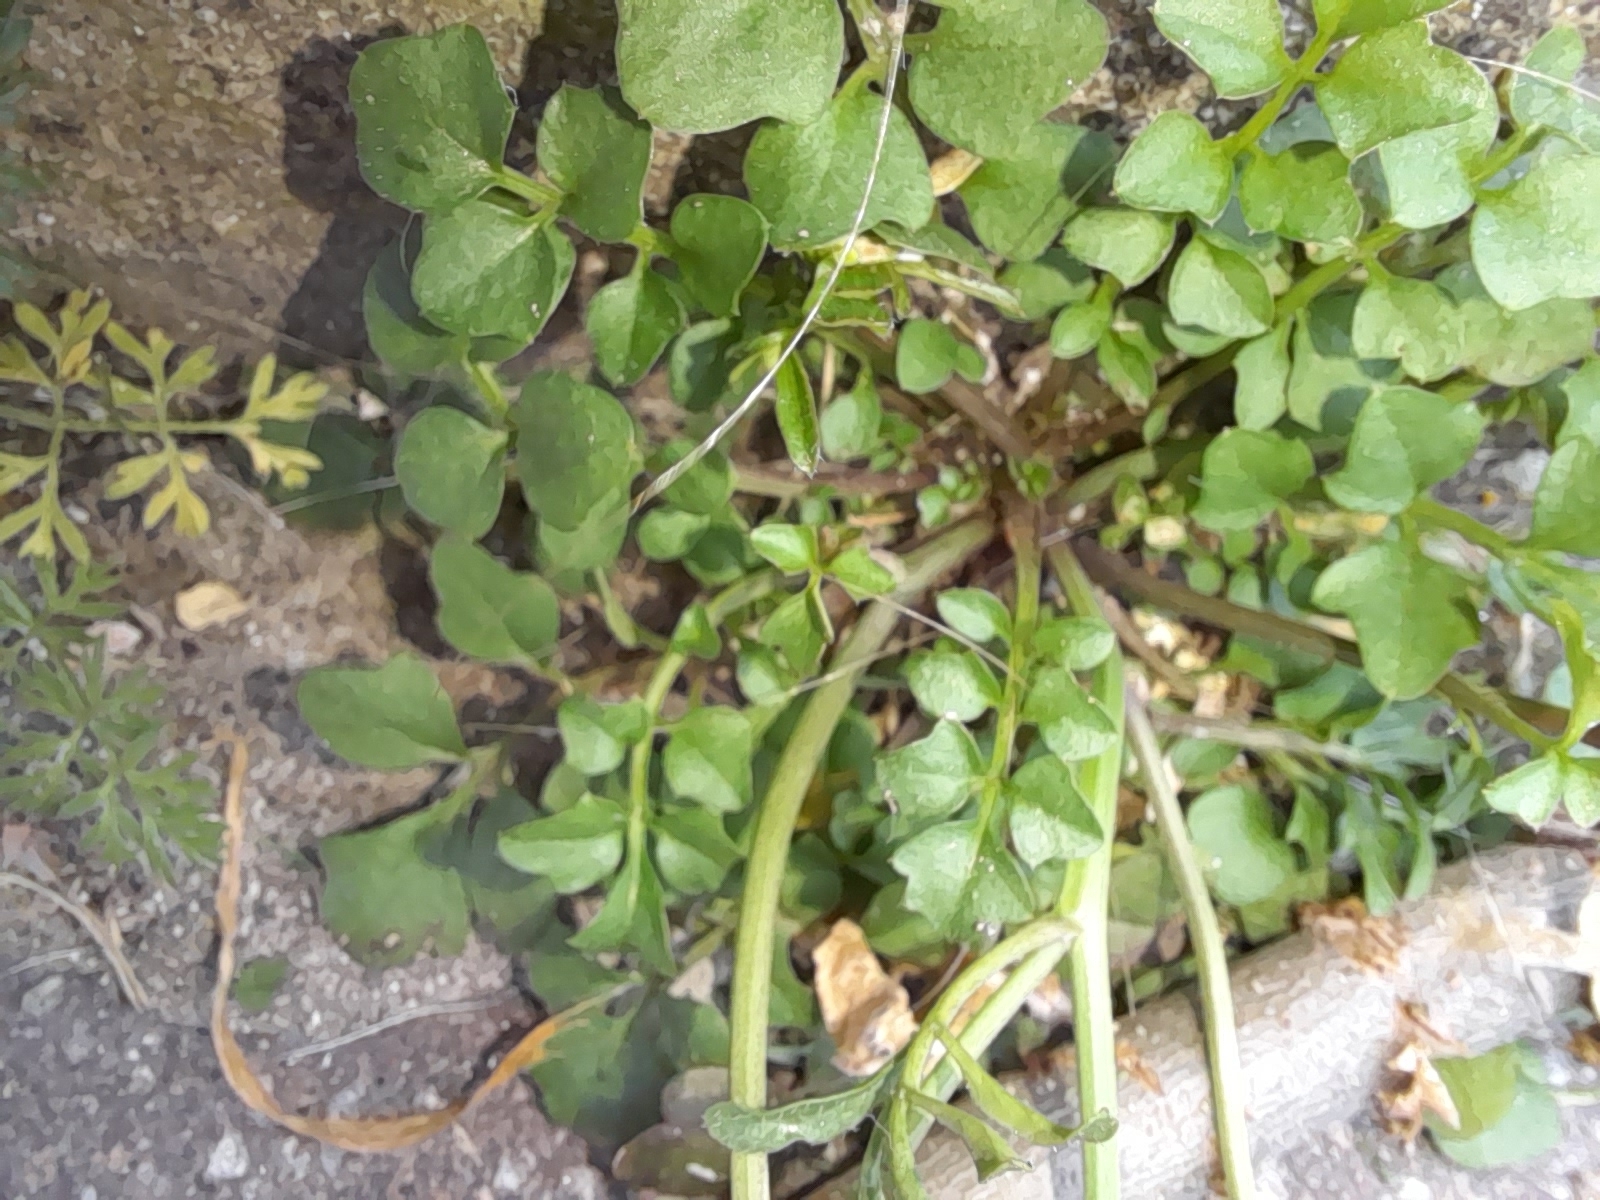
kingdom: Plantae
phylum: Tracheophyta
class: Magnoliopsida
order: Brassicales
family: Brassicaceae
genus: Cardamine
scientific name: Cardamine hirsuta
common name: Hairy bittercress
